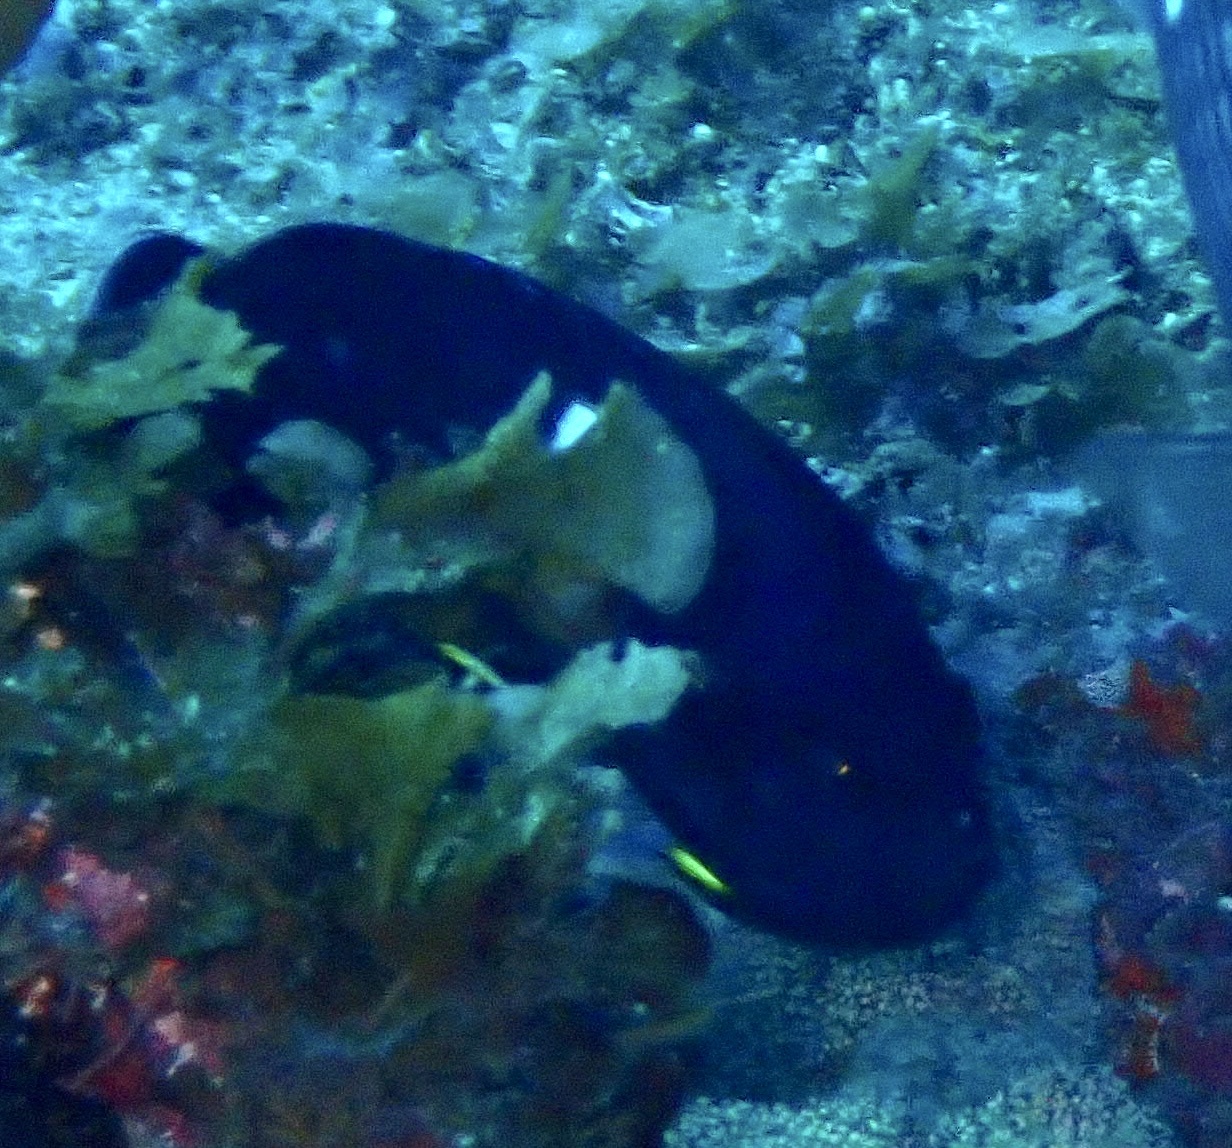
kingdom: Animalia
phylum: Chordata
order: Perciformes
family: Pomacanthidae
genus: Centropyge
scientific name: Centropyge tibicen
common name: Keyhole angelfish
